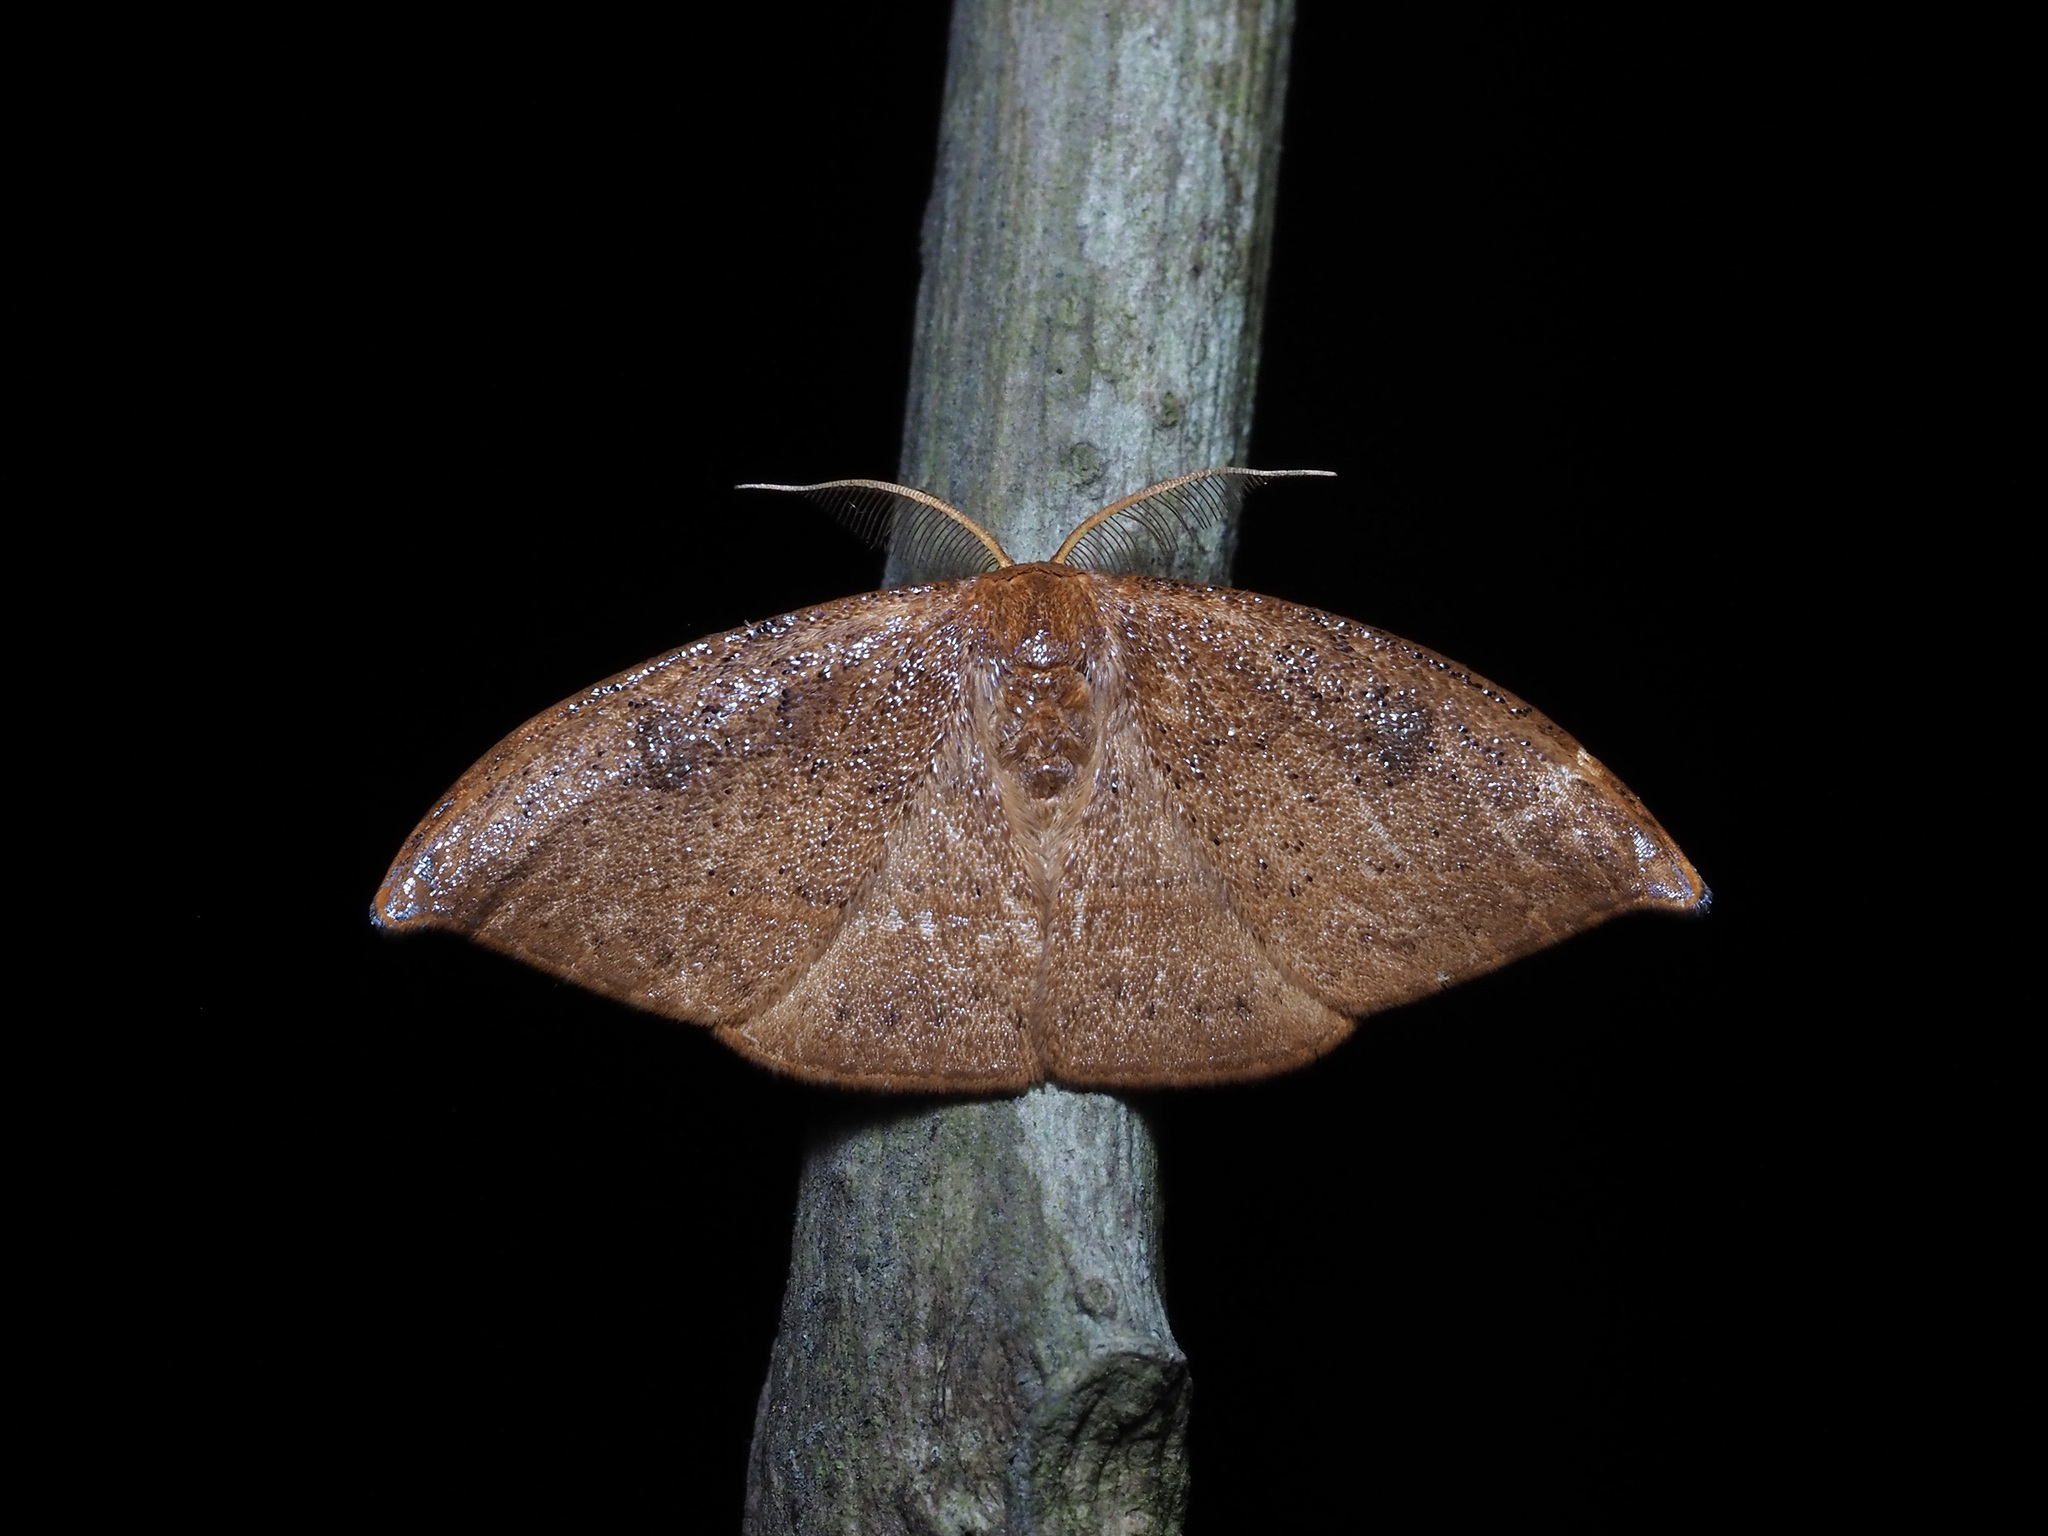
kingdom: Animalia
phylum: Arthropoda
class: Insecta
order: Lepidoptera
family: Drepanidae
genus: Callidrepana
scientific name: Callidrepana micacea
